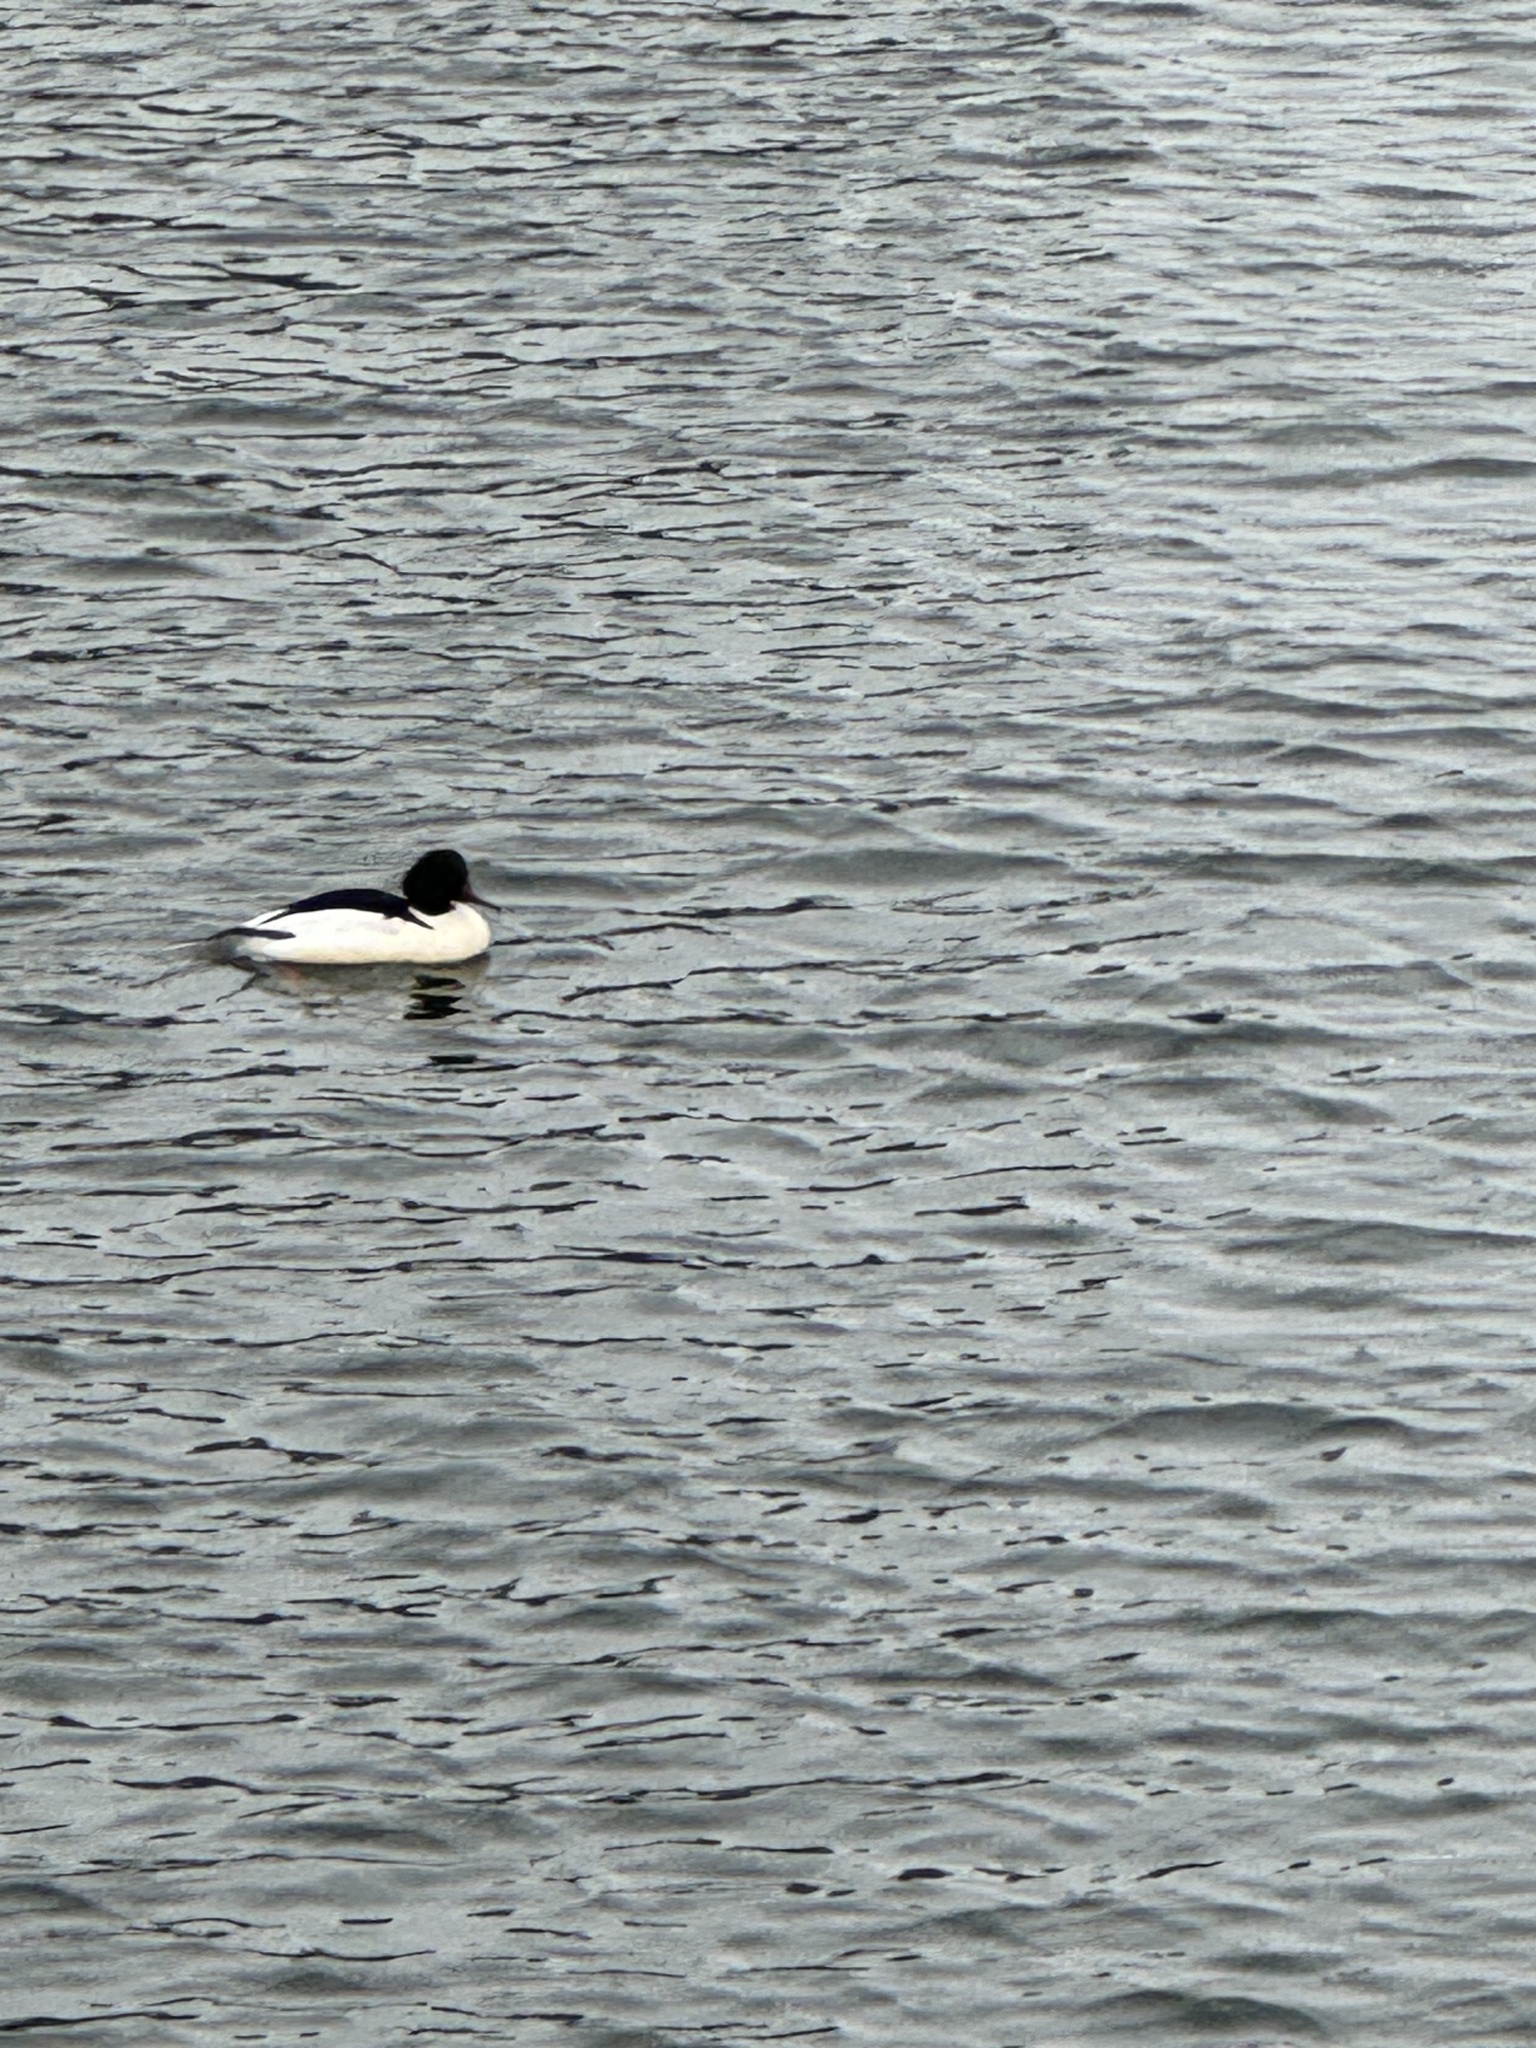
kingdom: Animalia
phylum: Chordata
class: Aves
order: Anseriformes
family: Anatidae
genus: Mergus
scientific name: Mergus merganser
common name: Common merganser
